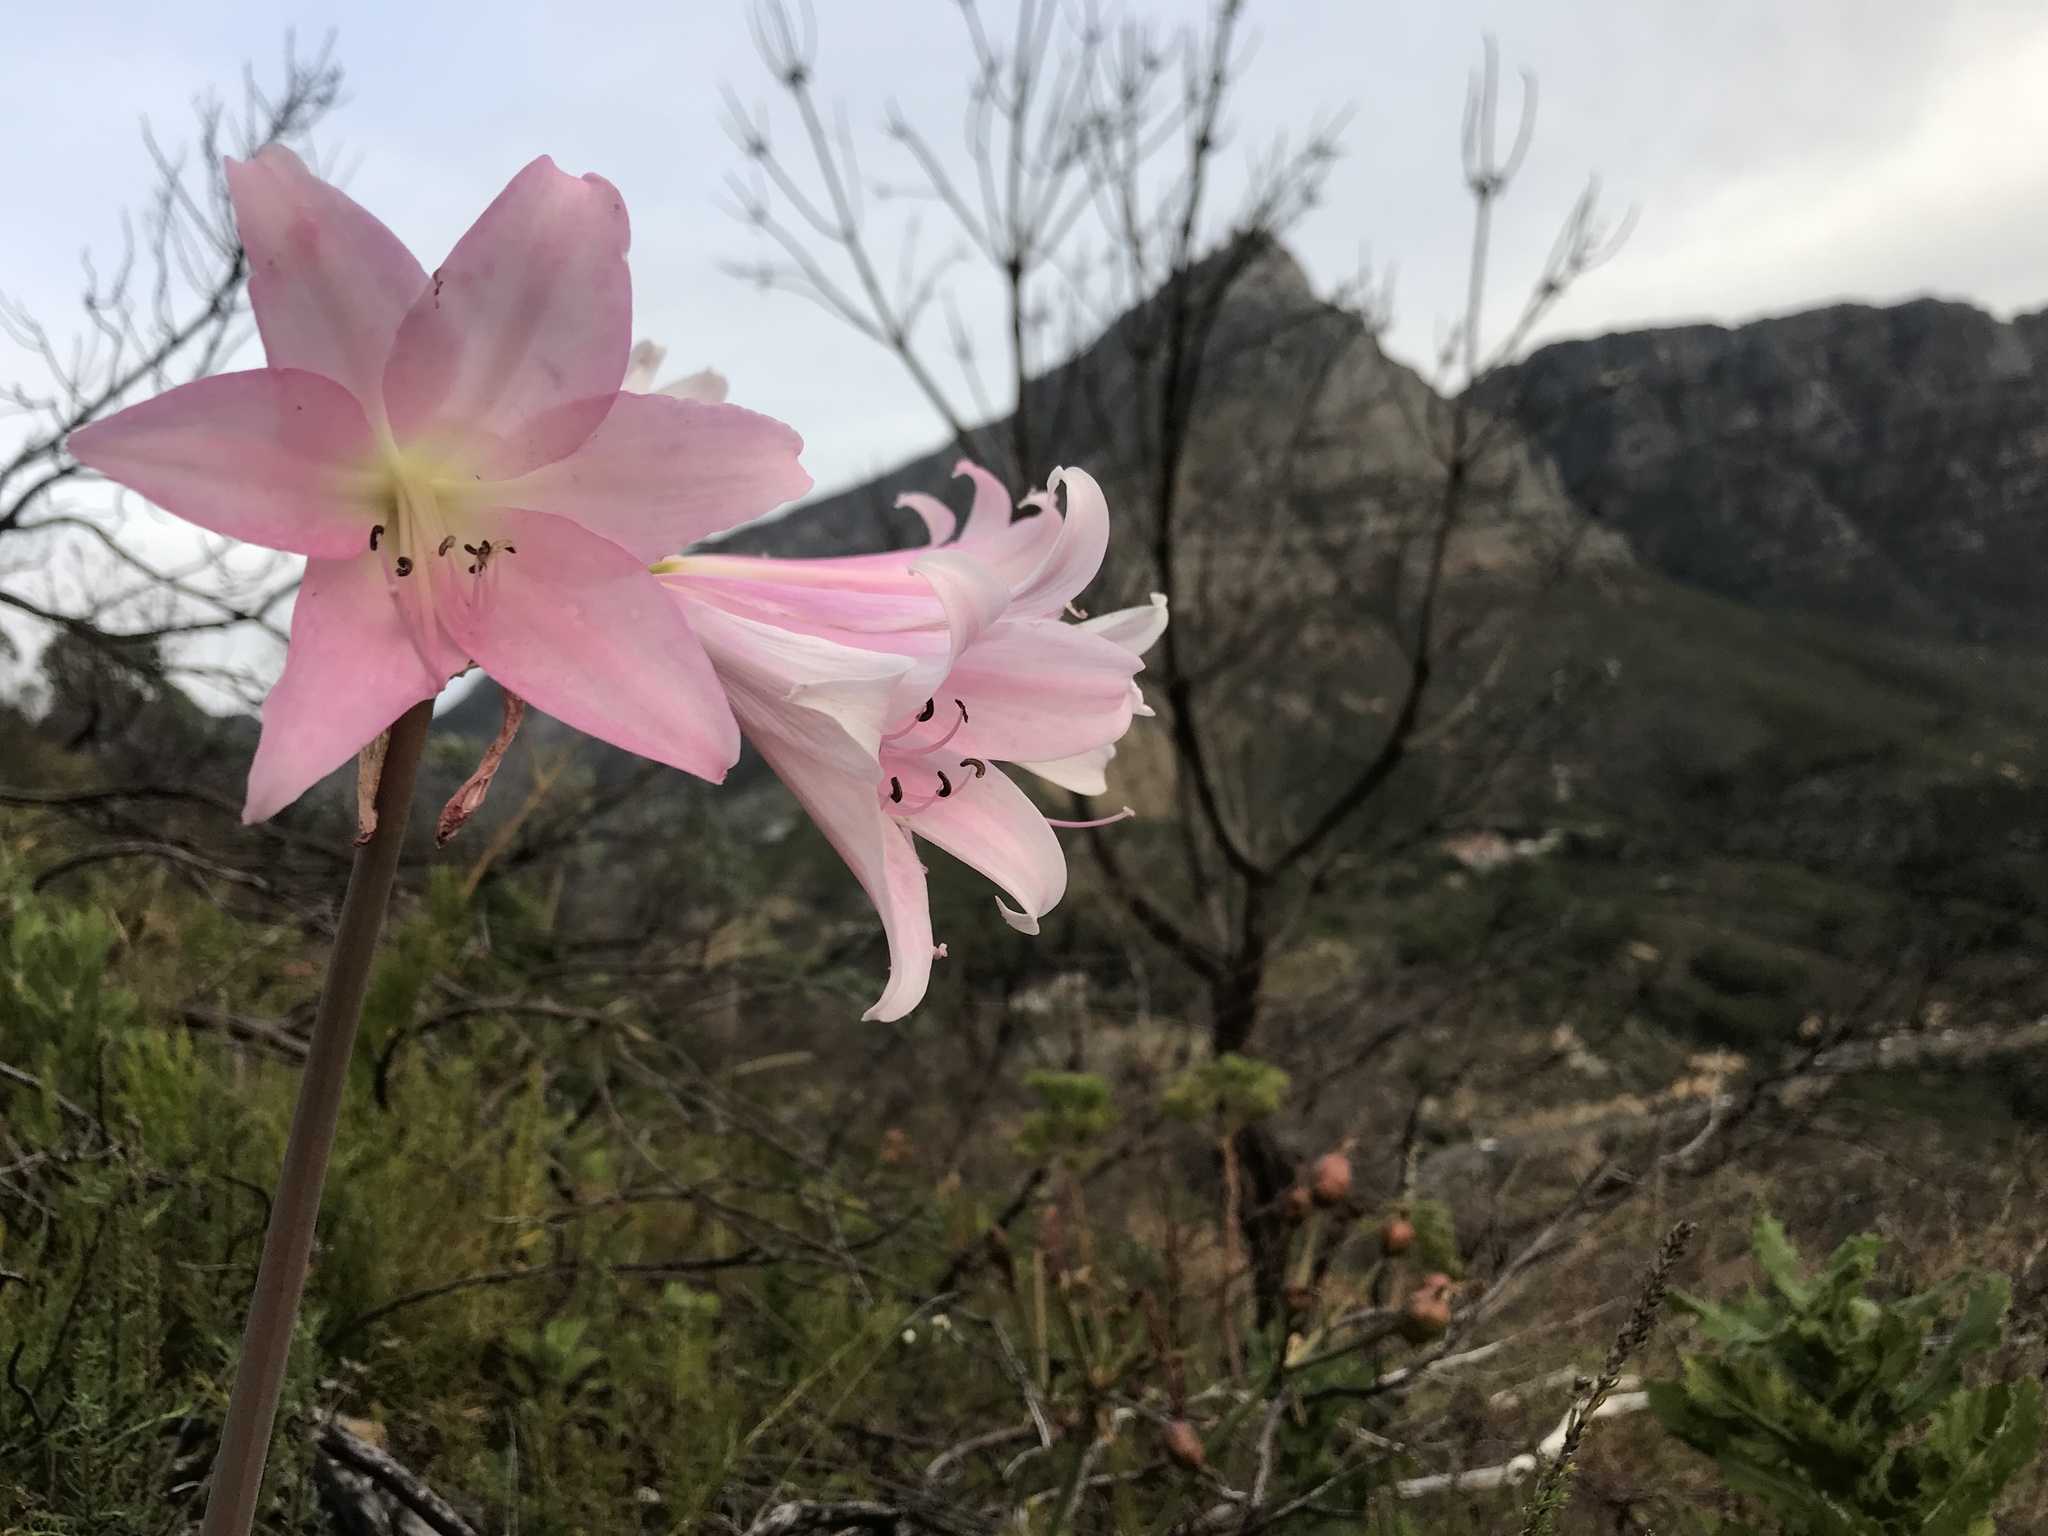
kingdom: Plantae
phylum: Tracheophyta
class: Liliopsida
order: Asparagales
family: Amaryllidaceae
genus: Amaryllis
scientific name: Amaryllis belladonna
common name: Jersey lily
